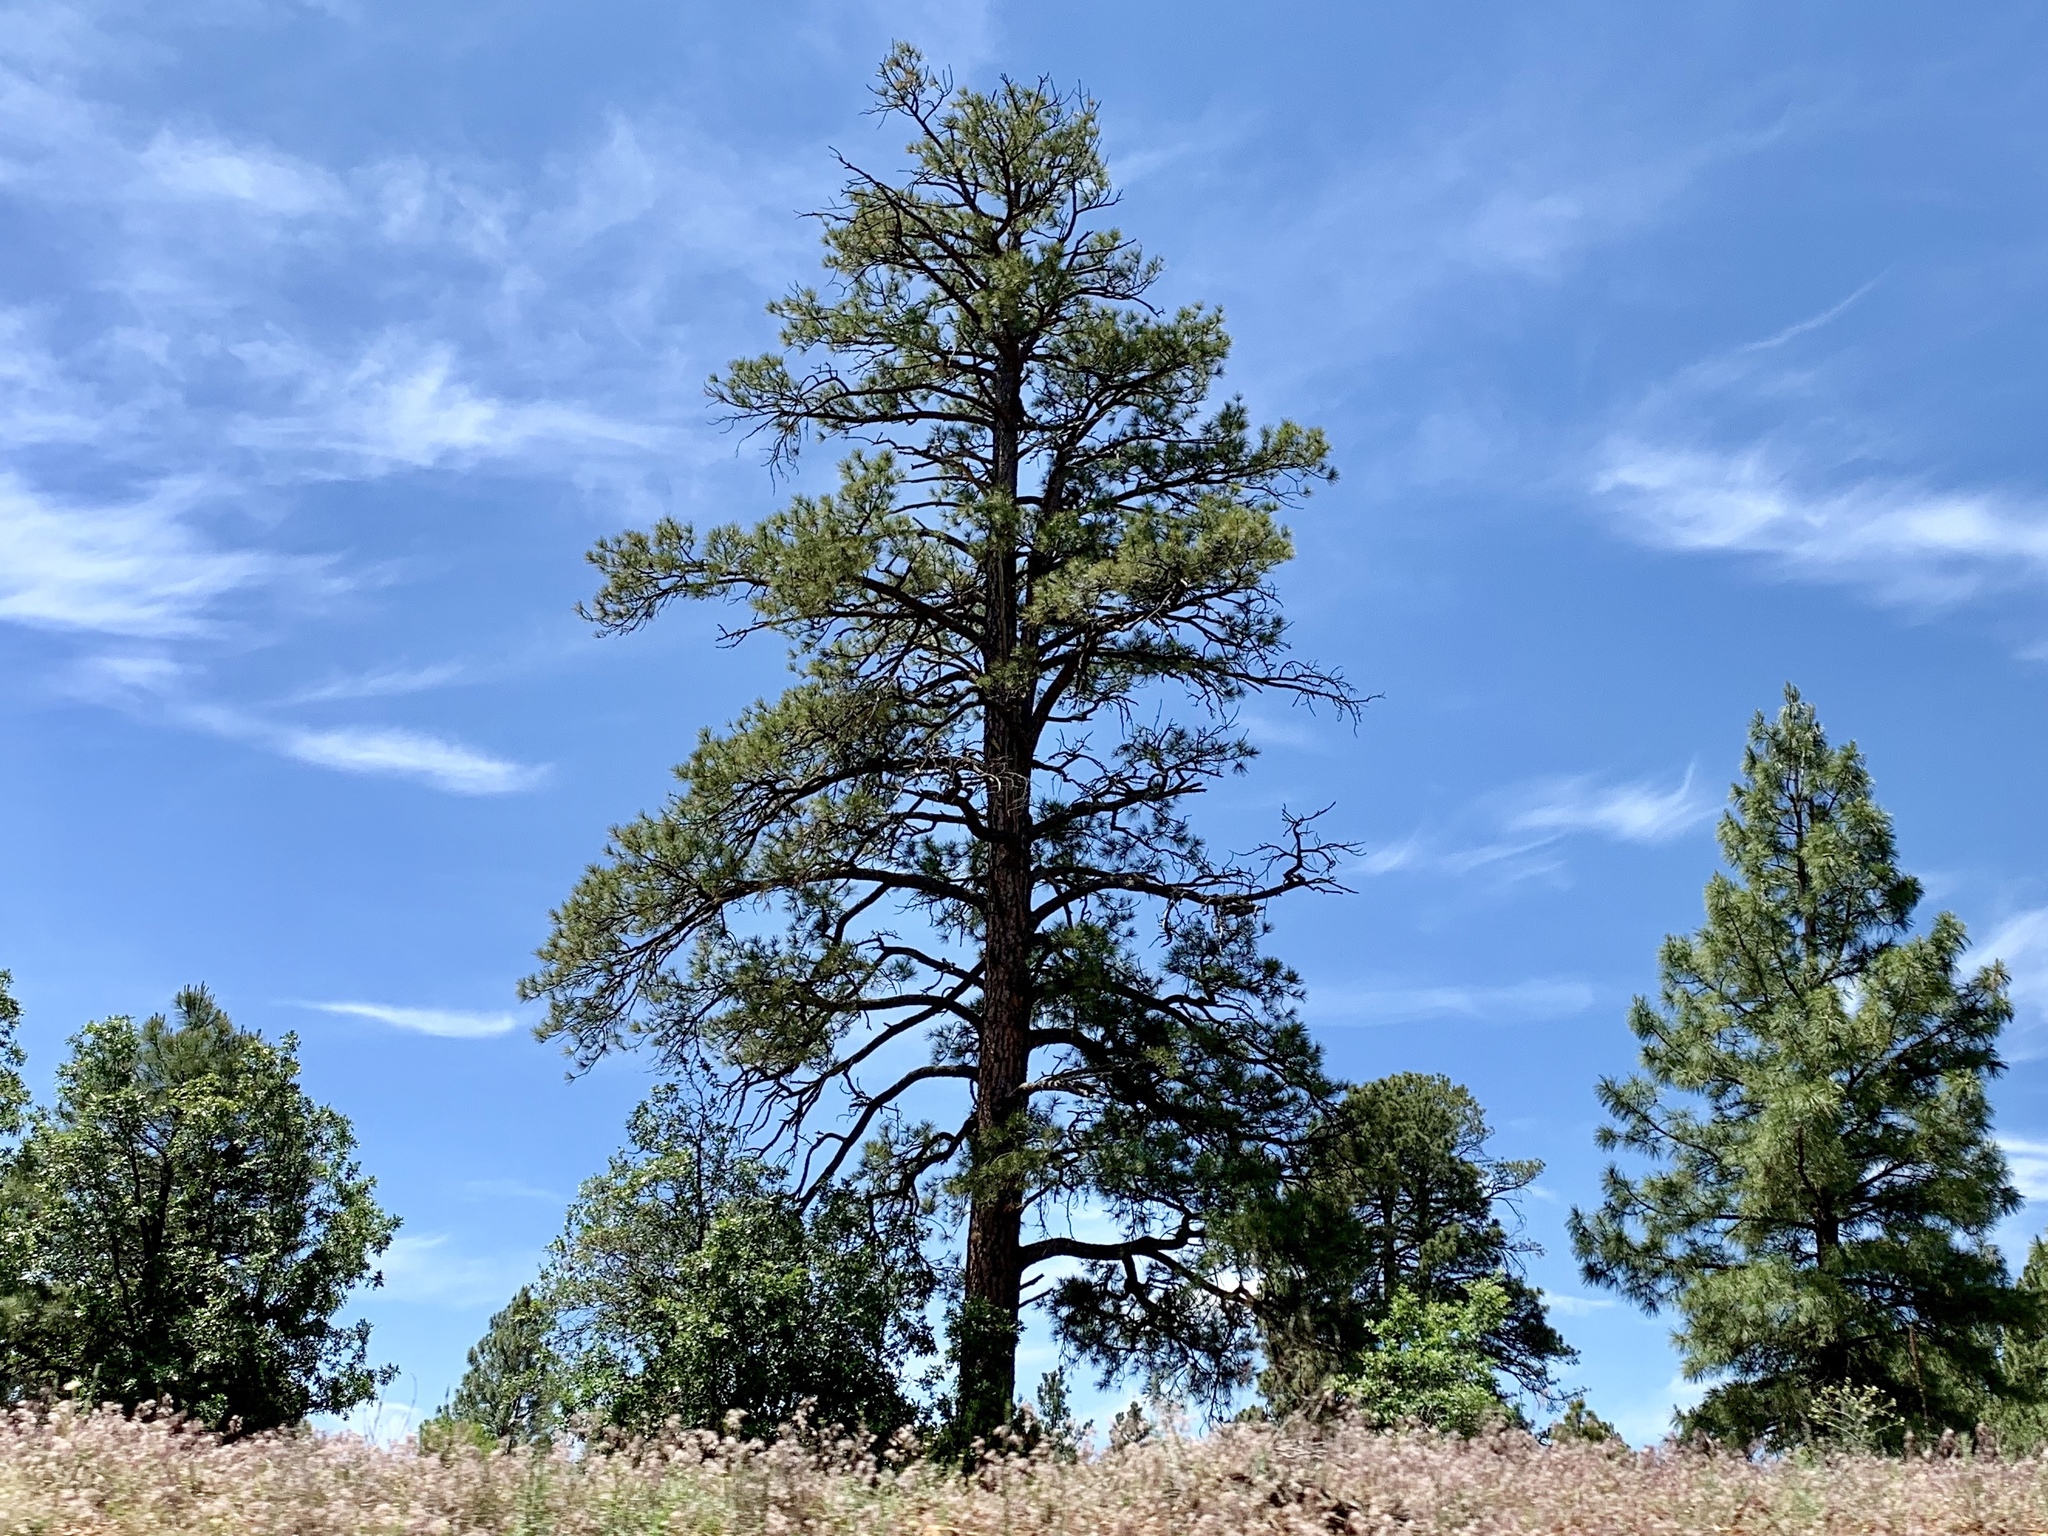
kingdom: Plantae
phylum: Tracheophyta
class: Pinopsida
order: Pinales
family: Pinaceae
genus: Pinus
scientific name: Pinus ponderosa
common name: Western yellow-pine
